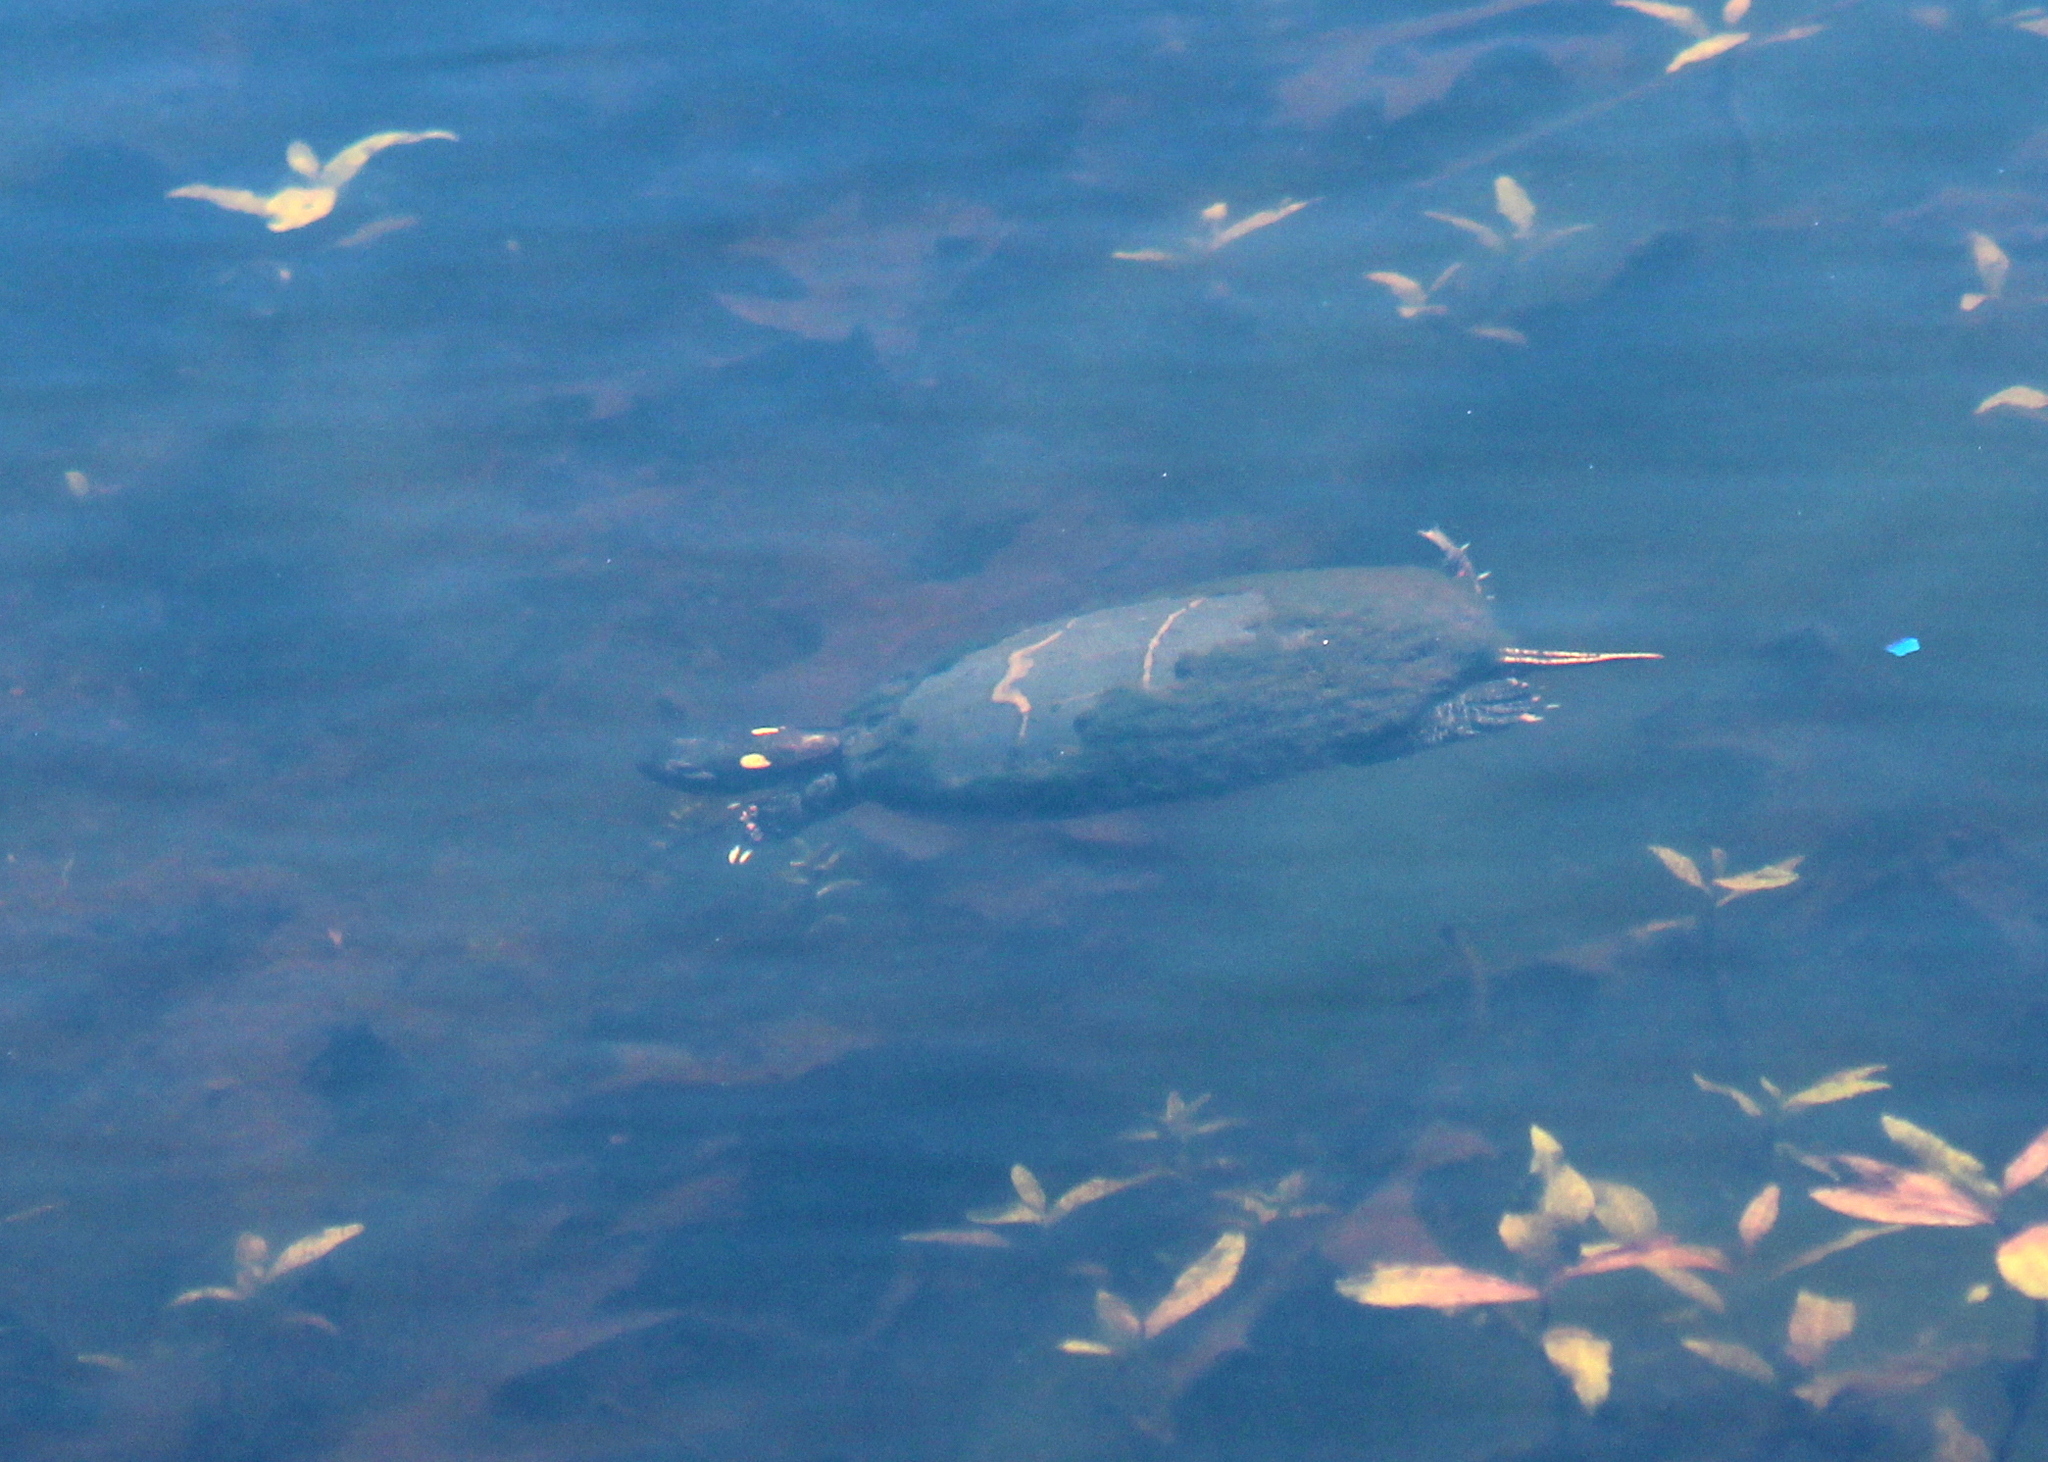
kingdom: Animalia
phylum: Chordata
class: Testudines
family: Emydidae
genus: Chrysemys
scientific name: Chrysemys picta
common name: Painted turtle
